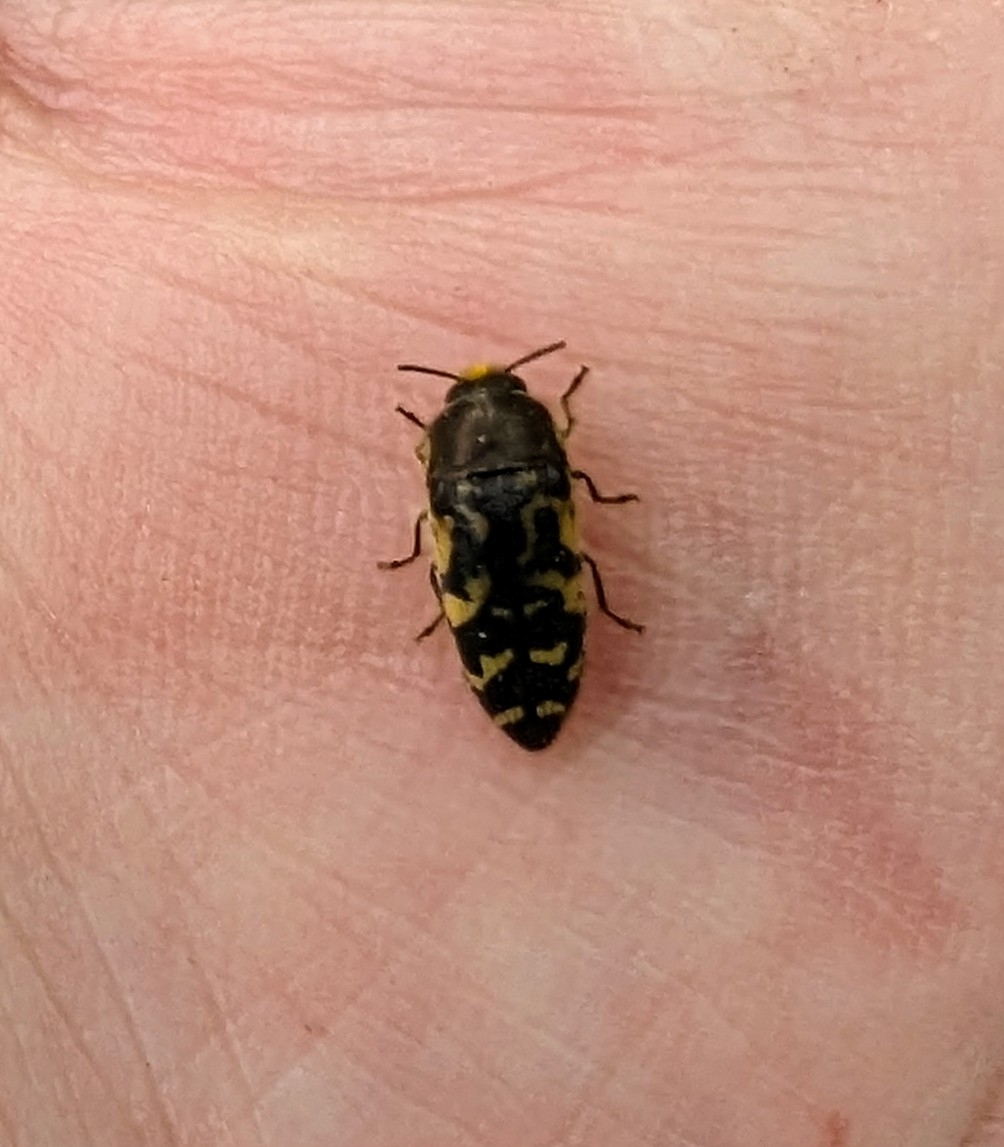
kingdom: Animalia
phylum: Arthropoda
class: Insecta
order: Coleoptera
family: Buprestidae
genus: Acmaeodera
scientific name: Acmaeodera pulchella
